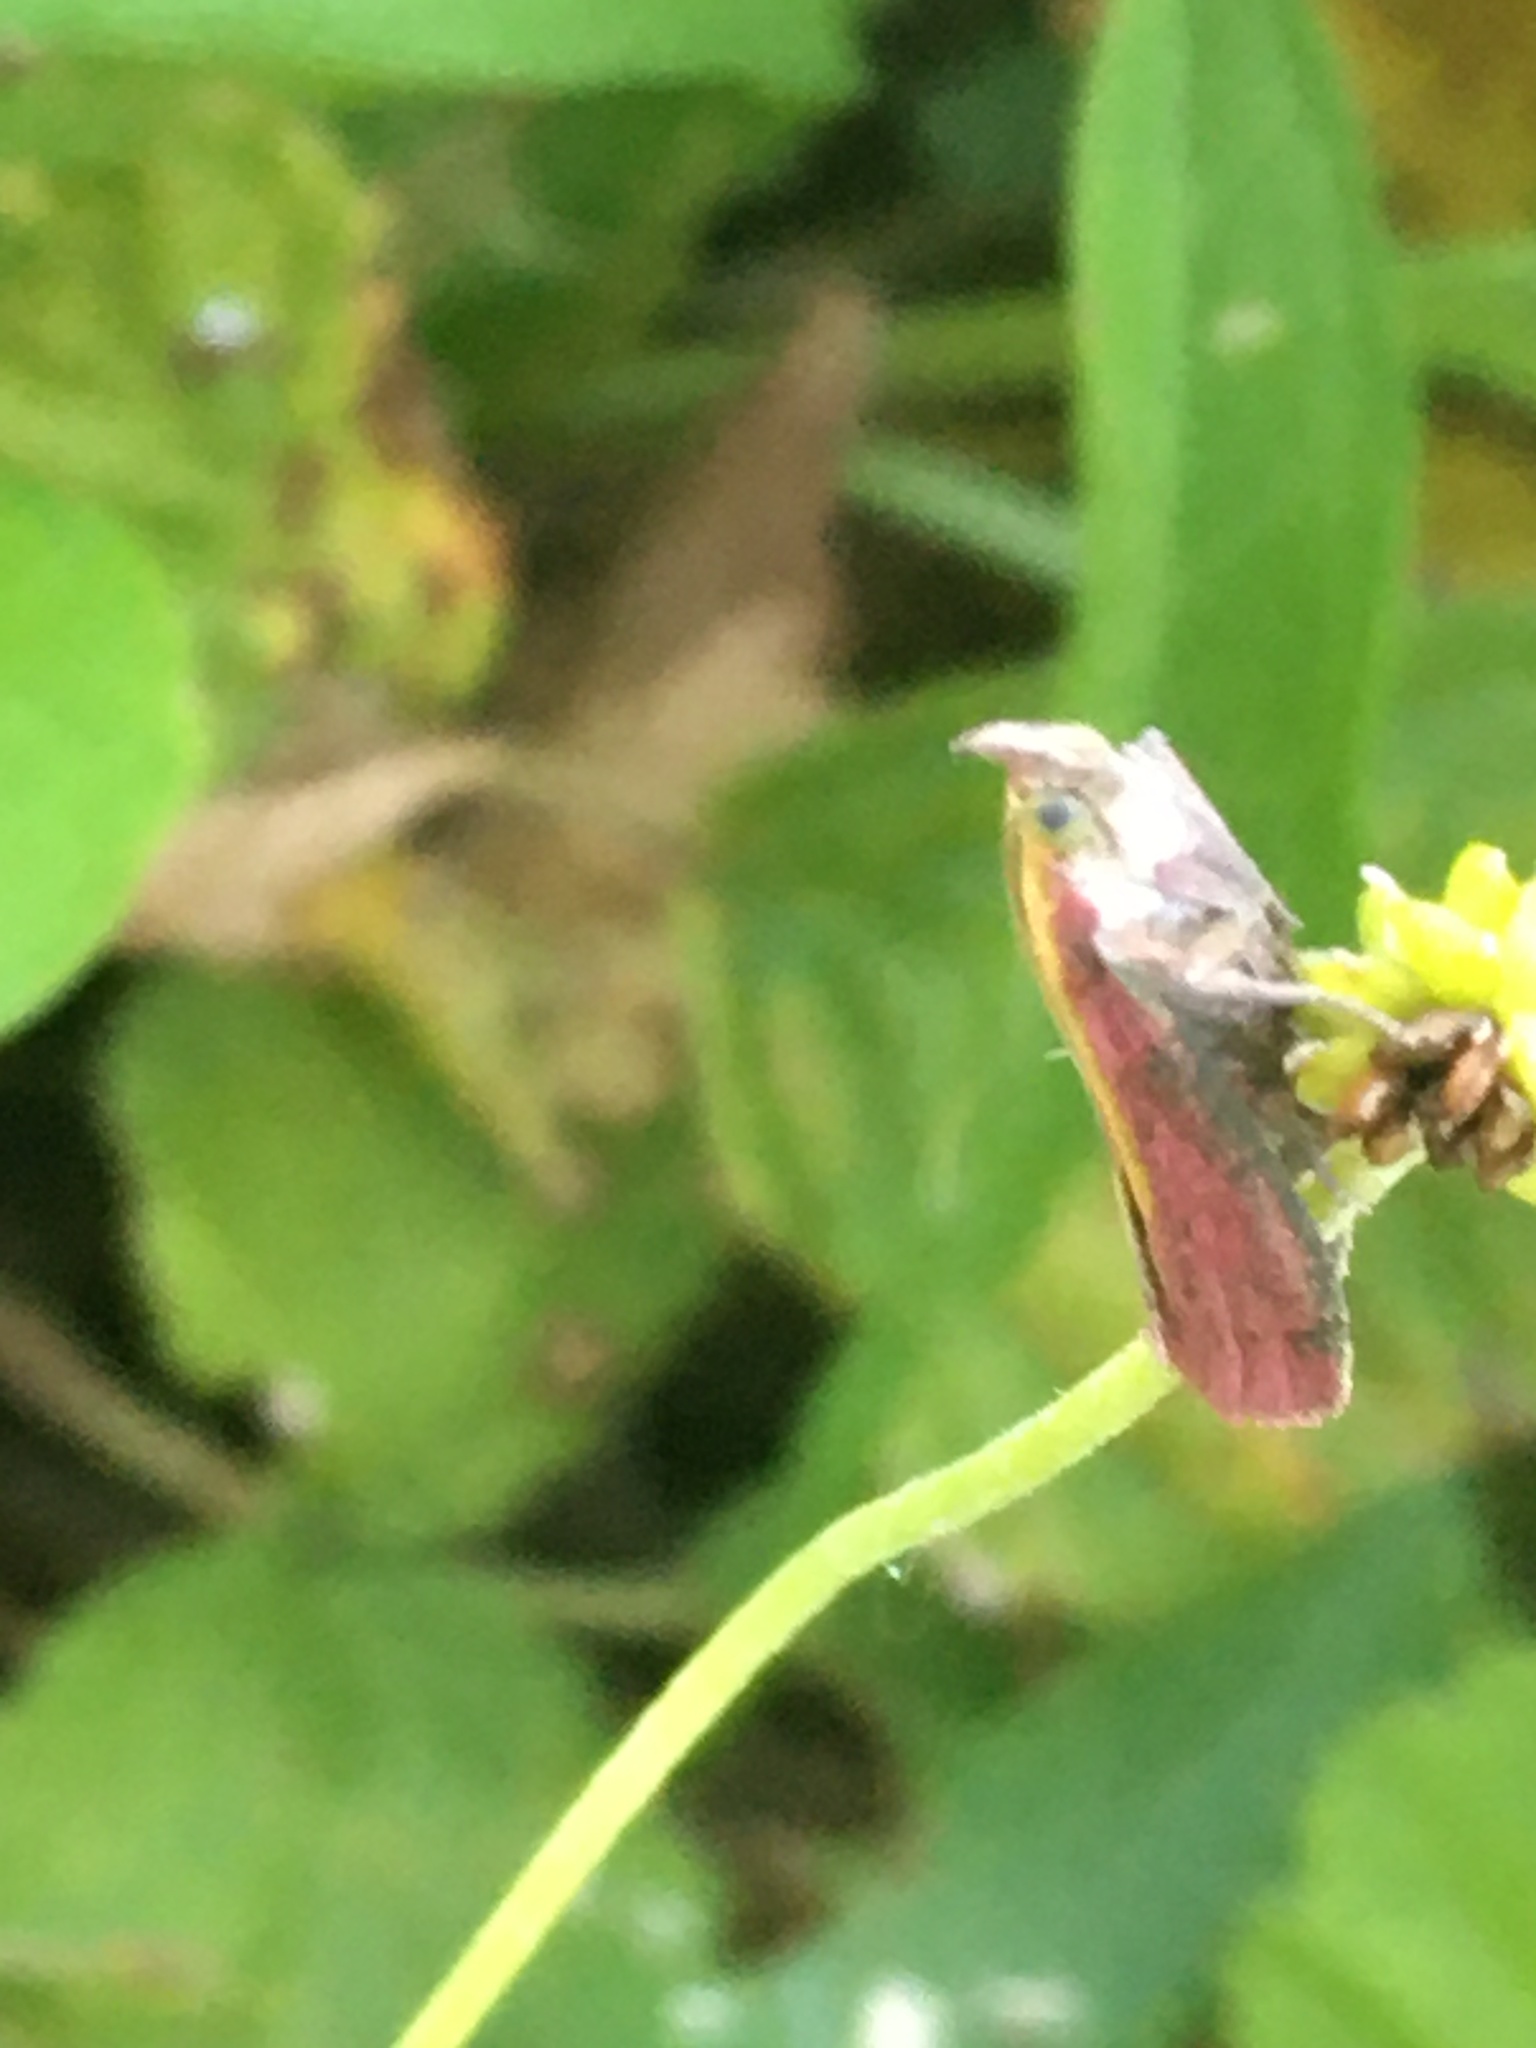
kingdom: Animalia
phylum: Arthropoda
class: Insecta
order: Lepidoptera
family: Pyralidae
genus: Oncocera
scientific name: Oncocera semirubella
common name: Rosy-striped knot-horn
